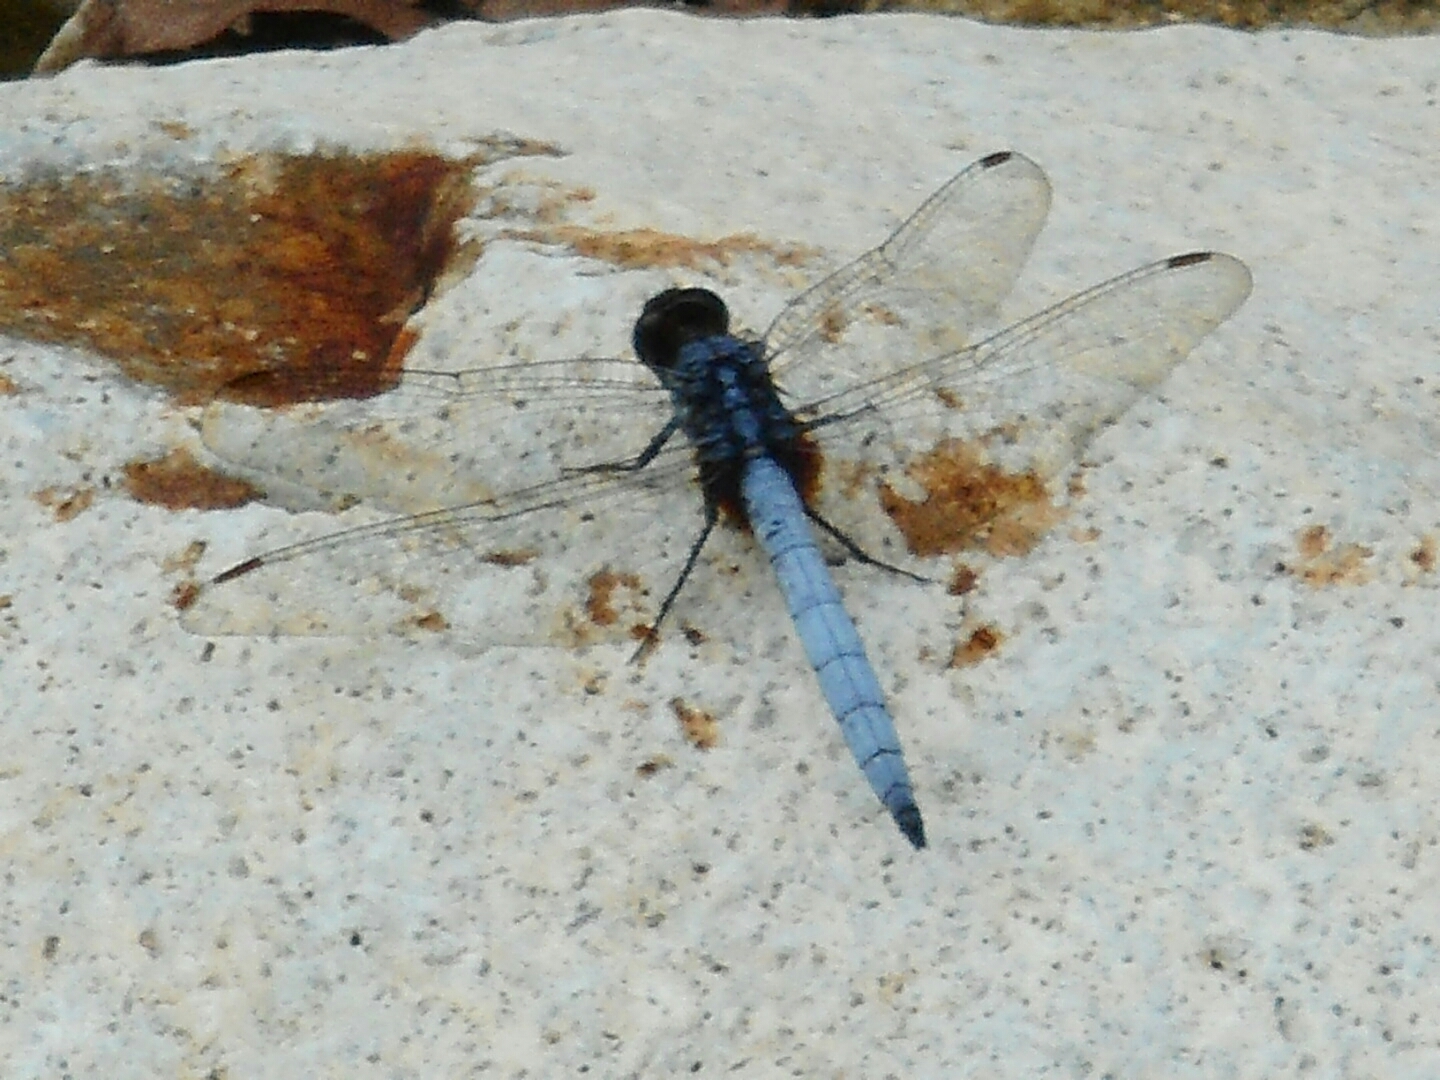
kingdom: Animalia
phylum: Arthropoda
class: Insecta
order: Odonata
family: Libellulidae
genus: Orthetrum
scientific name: Orthetrum glaucum
